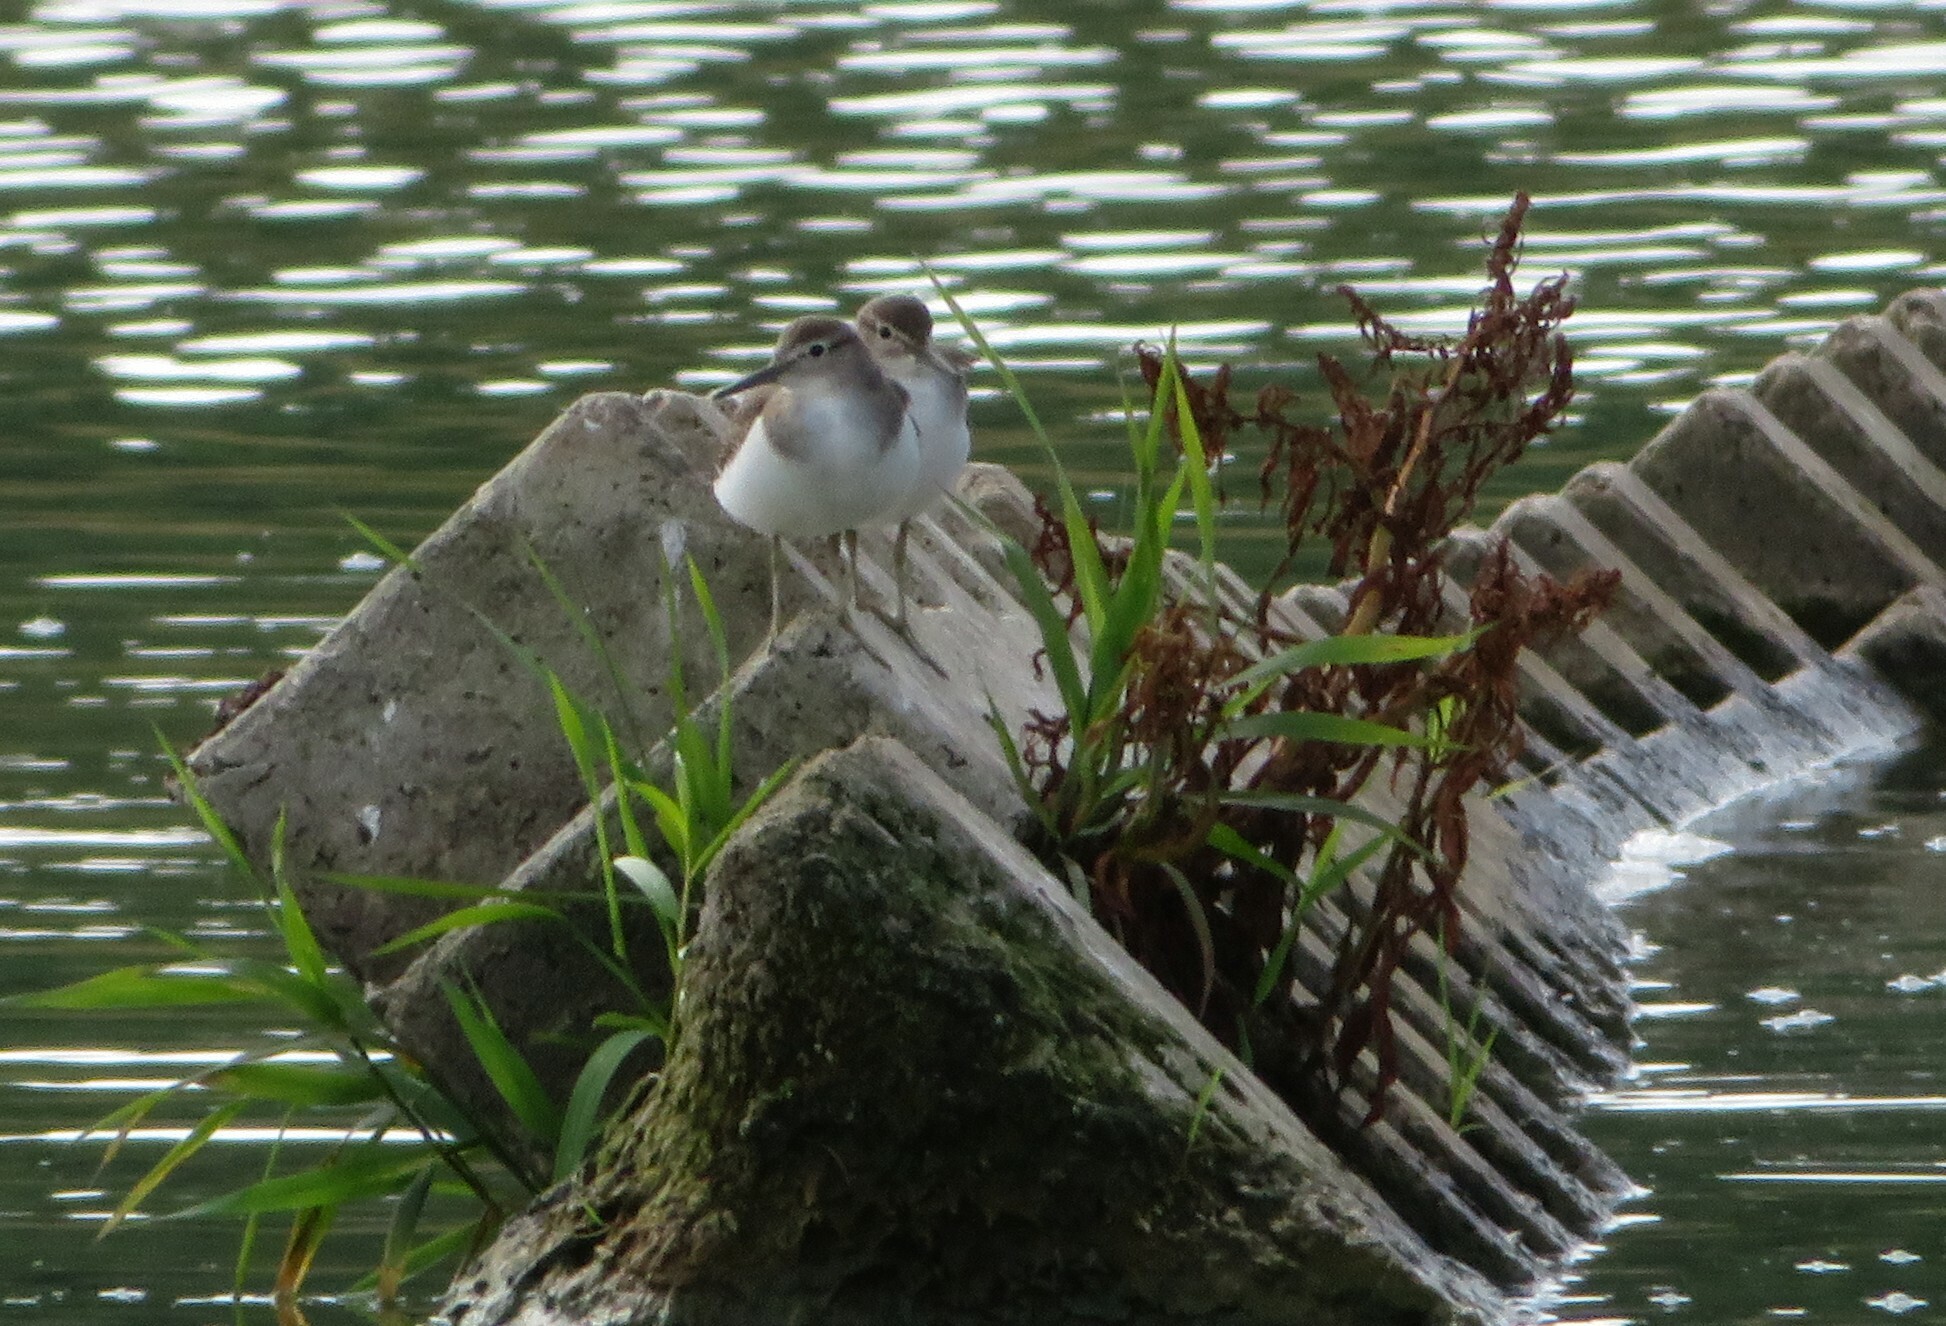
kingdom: Animalia
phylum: Chordata
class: Aves
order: Charadriiformes
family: Scolopacidae
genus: Actitis
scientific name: Actitis hypoleucos
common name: Common sandpiper
